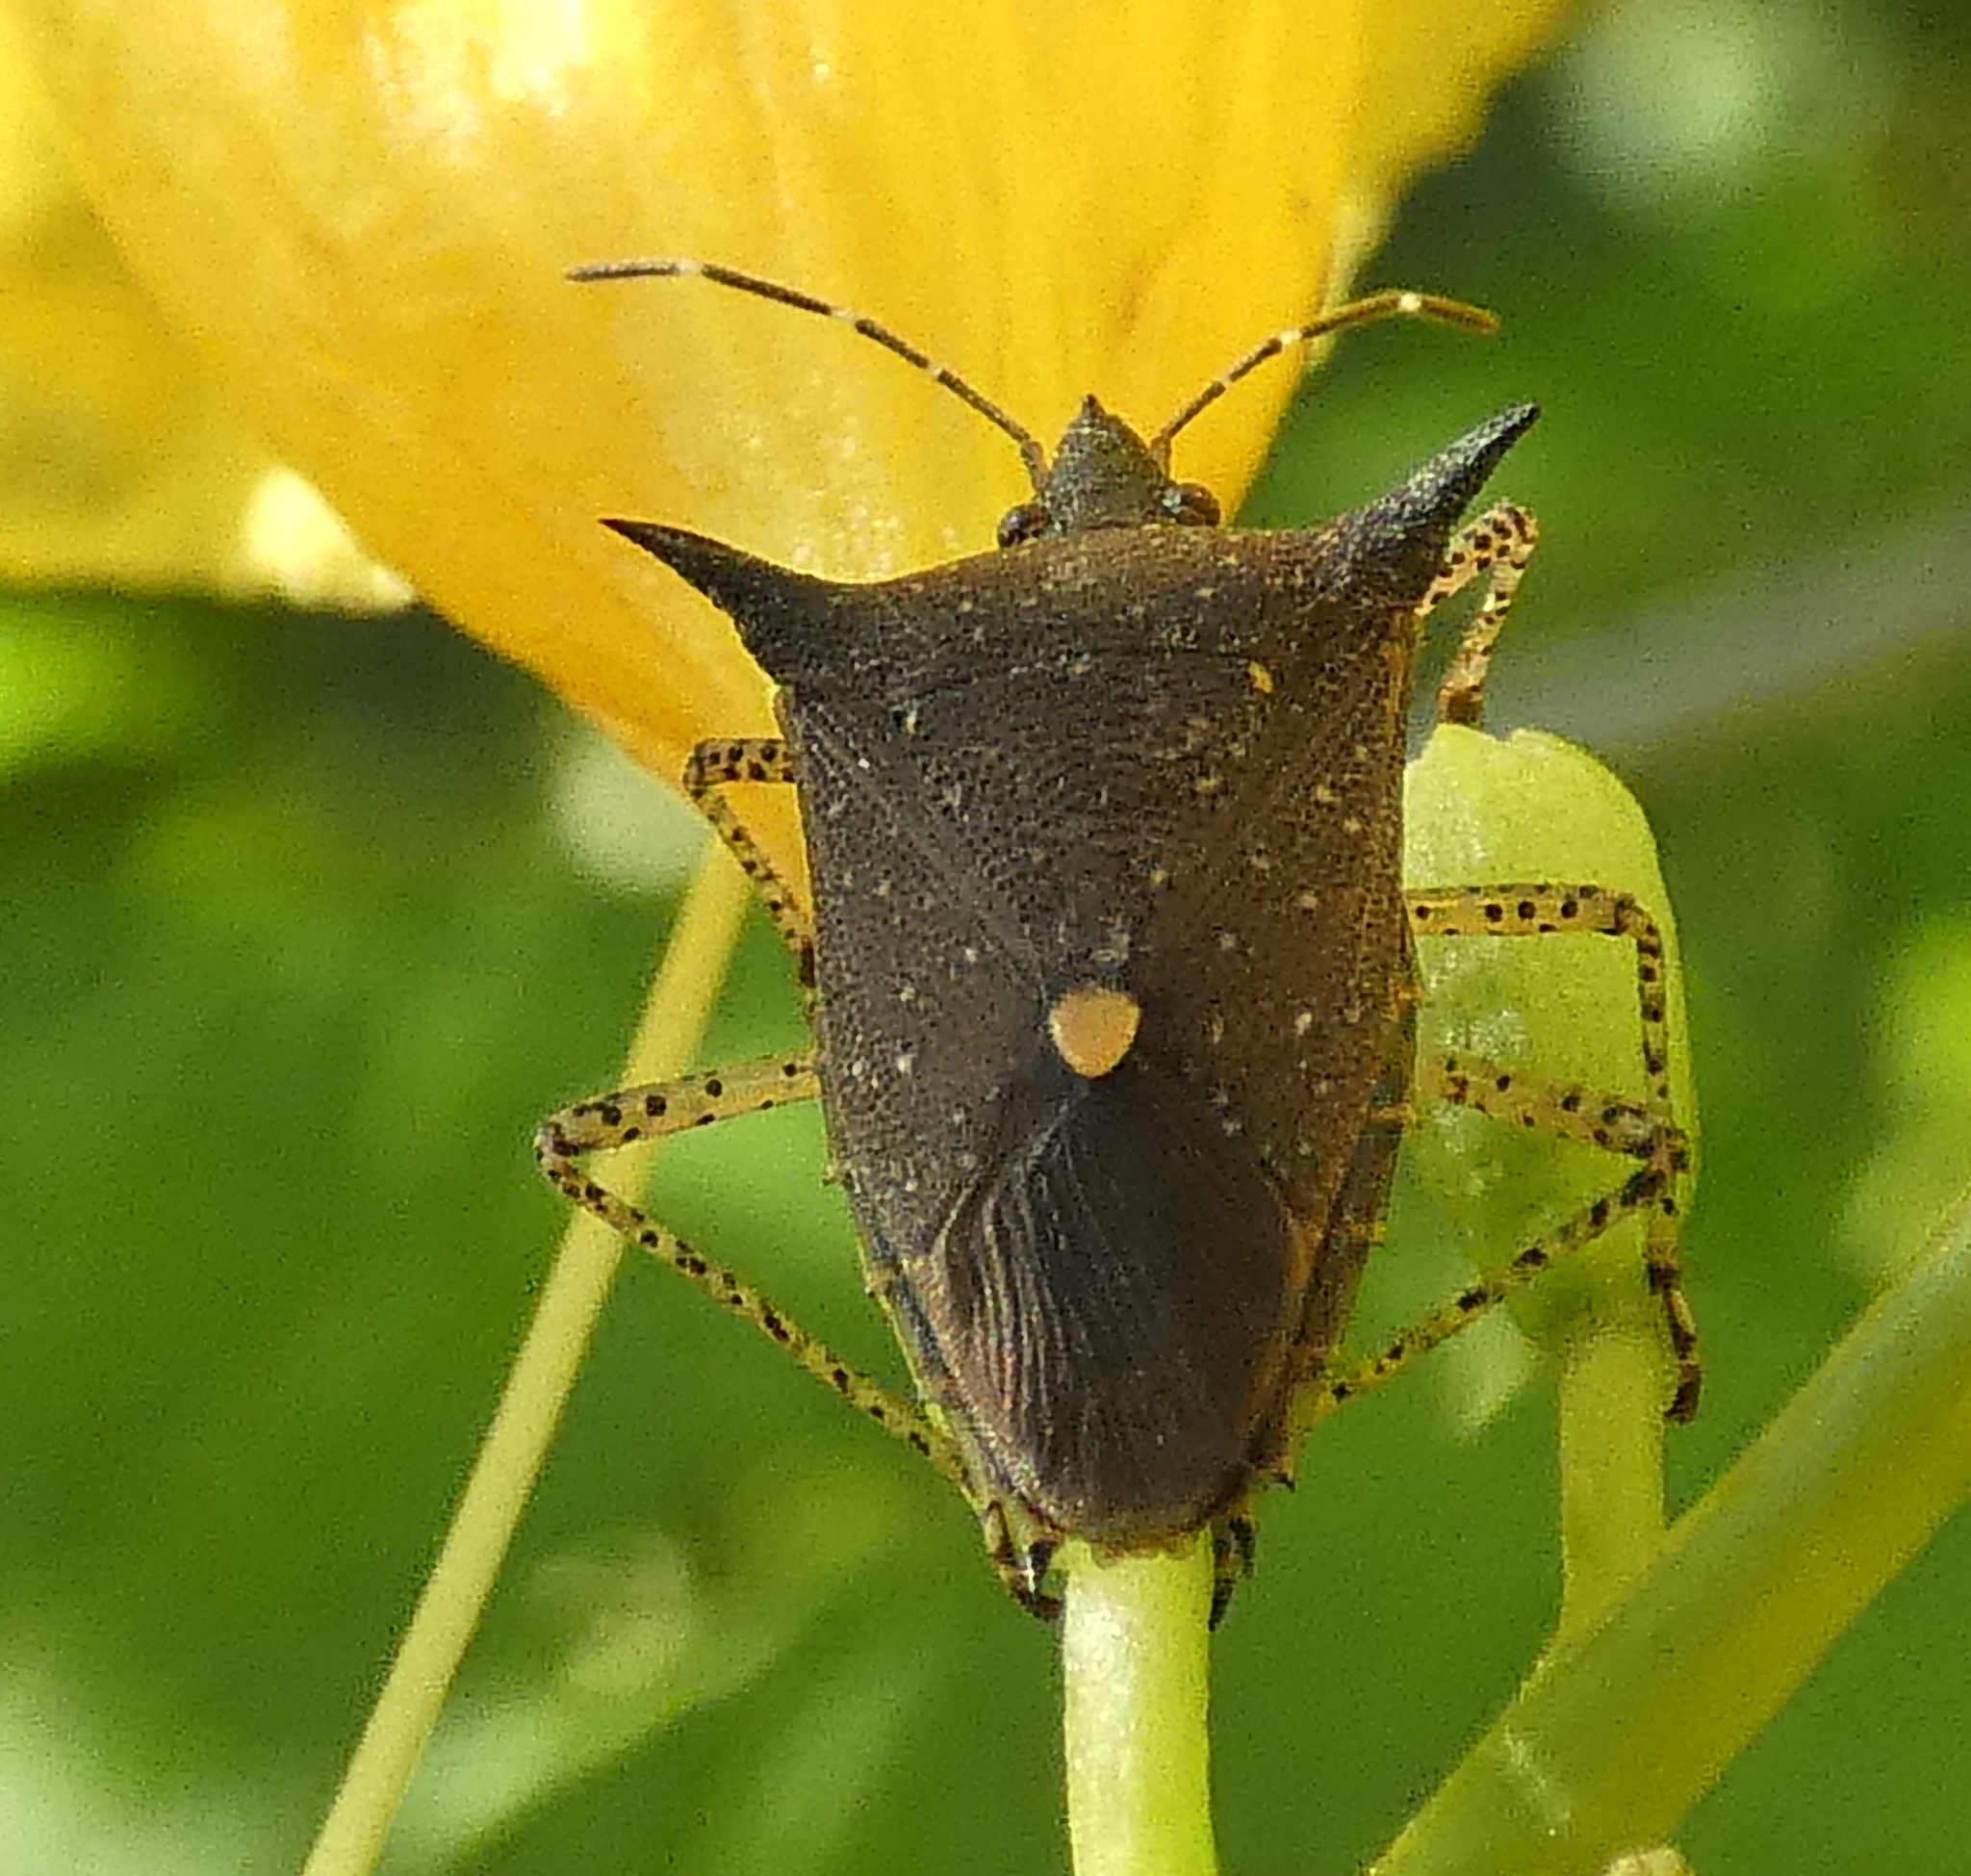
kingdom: Animalia
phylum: Arthropoda
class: Insecta
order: Hemiptera
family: Pentatomidae
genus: Proxys
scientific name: Proxys albopunctulatus
